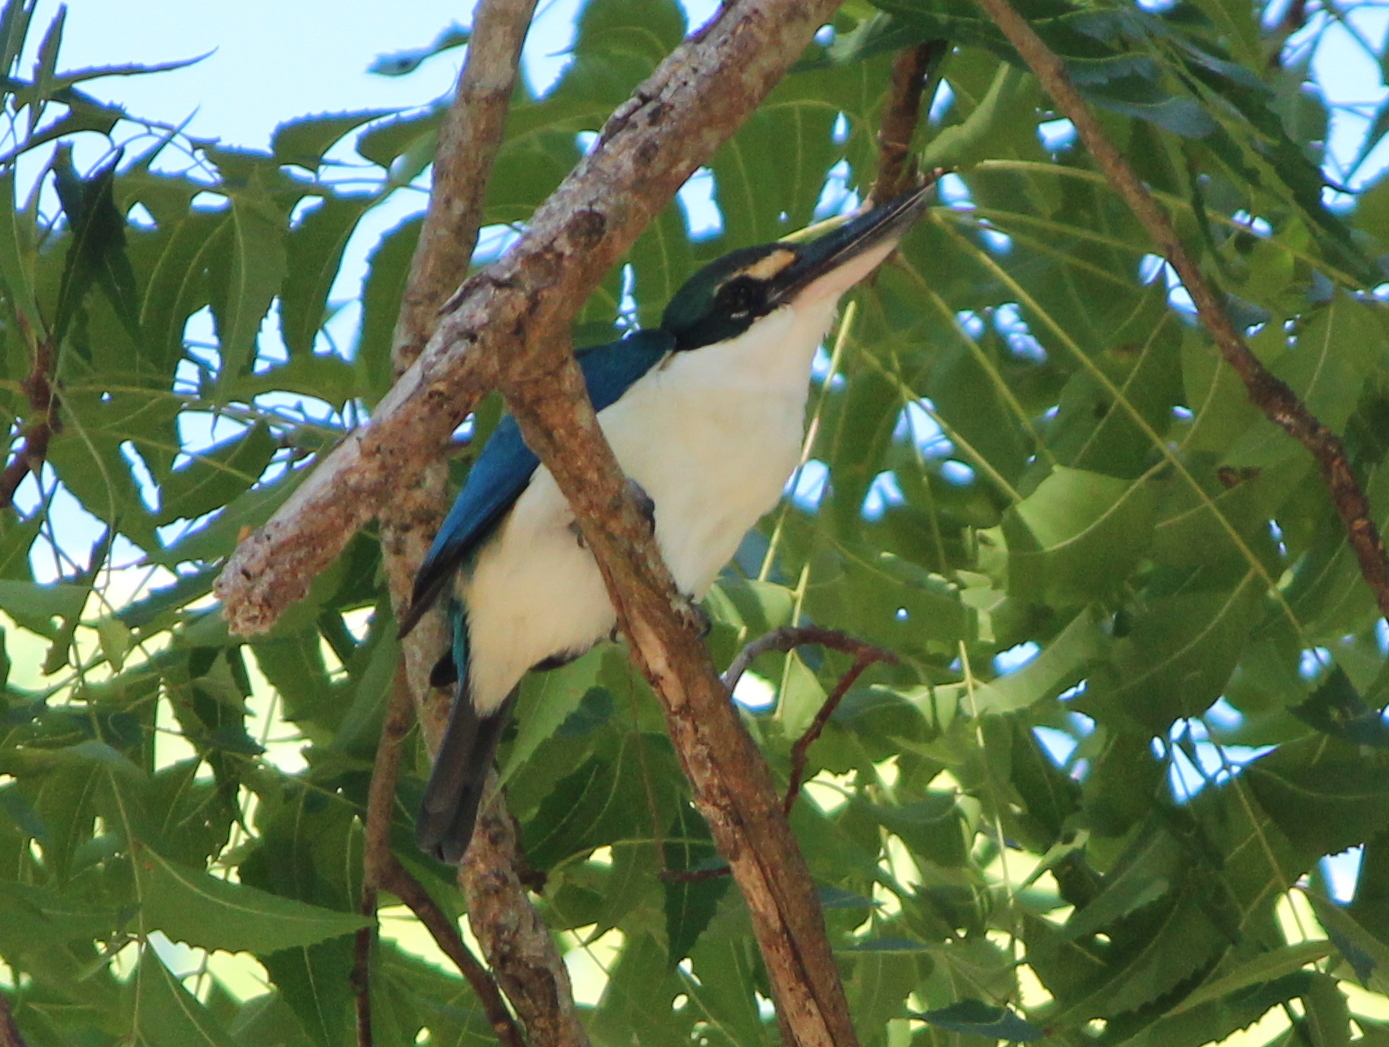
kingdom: Animalia
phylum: Chordata
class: Aves
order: Coraciiformes
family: Alcedinidae
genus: Todiramphus
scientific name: Todiramphus chloris
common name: Collared kingfisher
